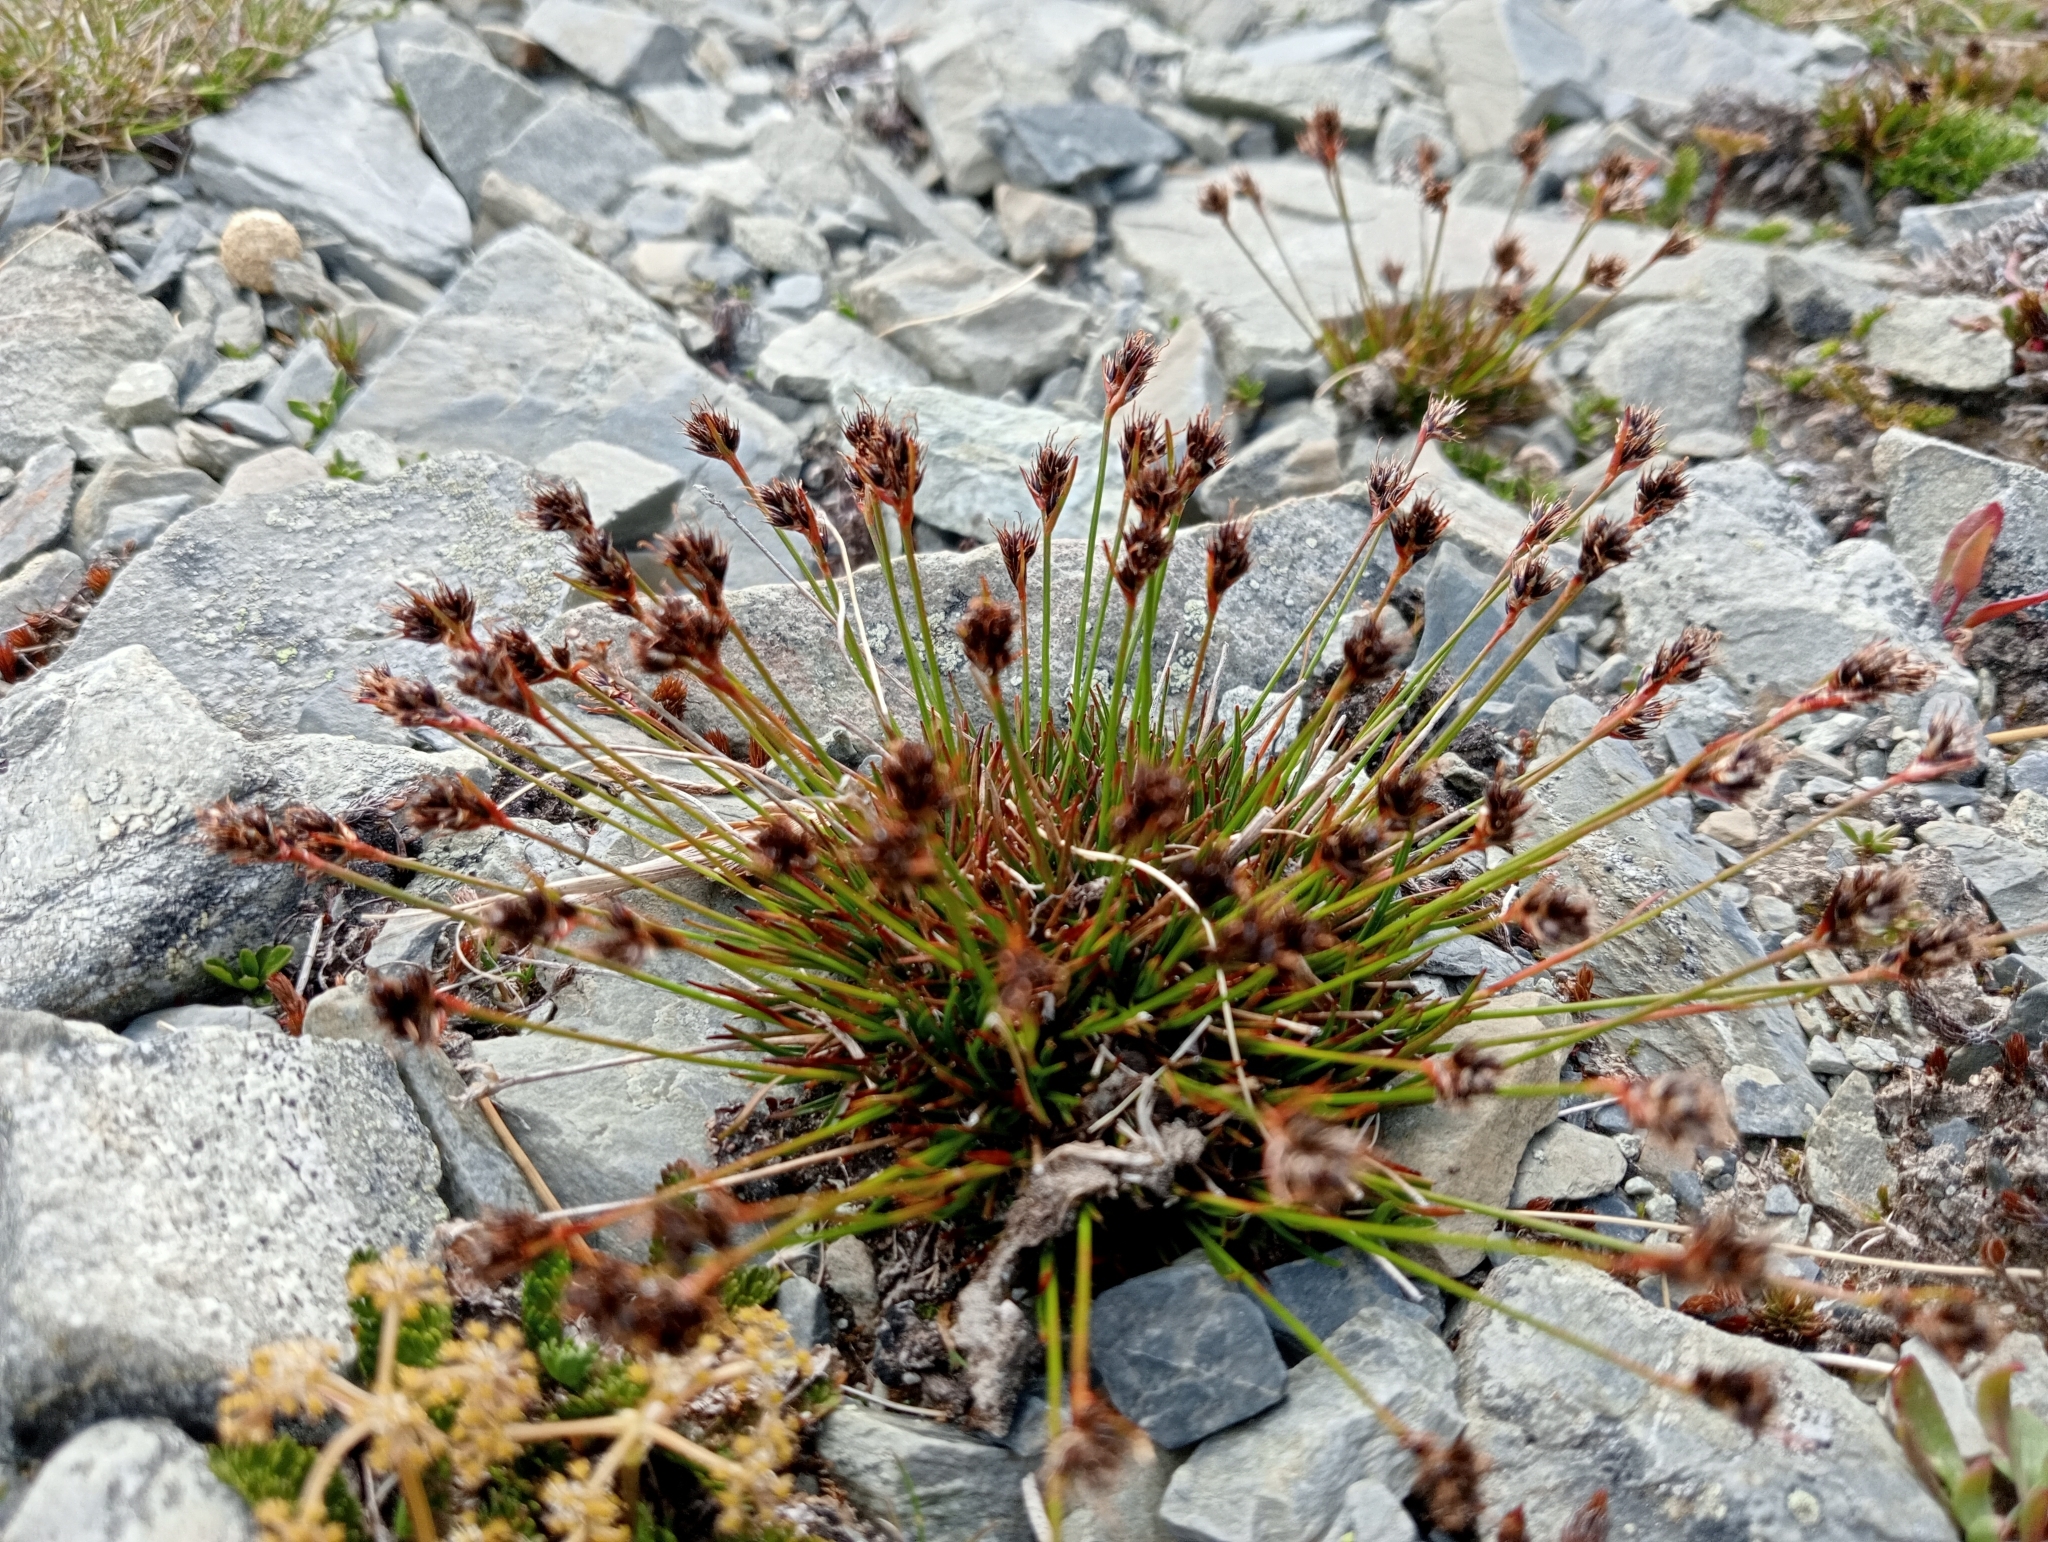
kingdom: Plantae
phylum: Tracheophyta
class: Liliopsida
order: Poales
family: Juncaceae
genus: Luzula
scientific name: Luzula pumila
